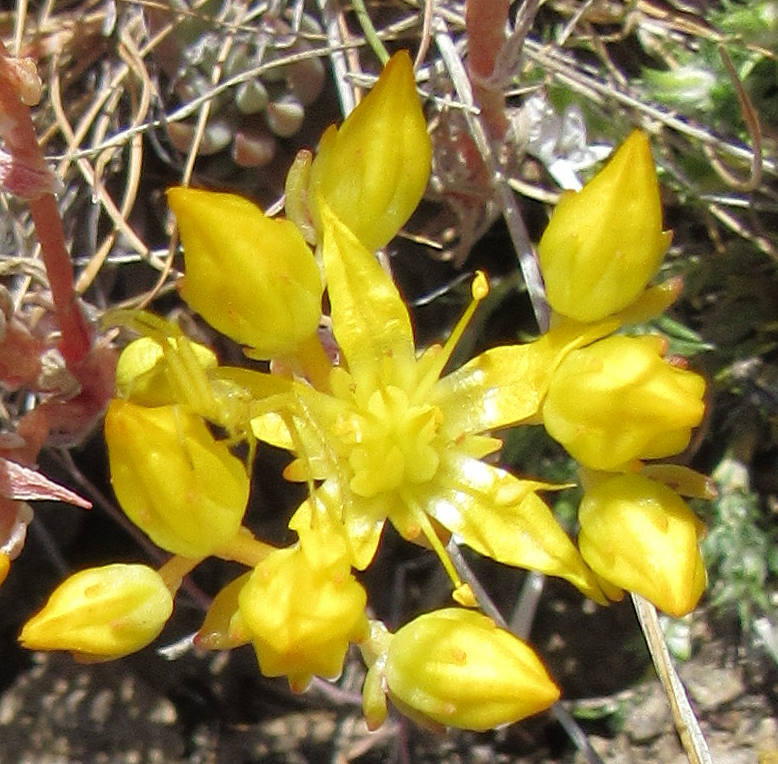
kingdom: Animalia
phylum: Arthropoda
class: Arachnida
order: Araneae
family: Thomisidae
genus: Misumena
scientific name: Misumena vatia
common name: Goldenrod crab spider
